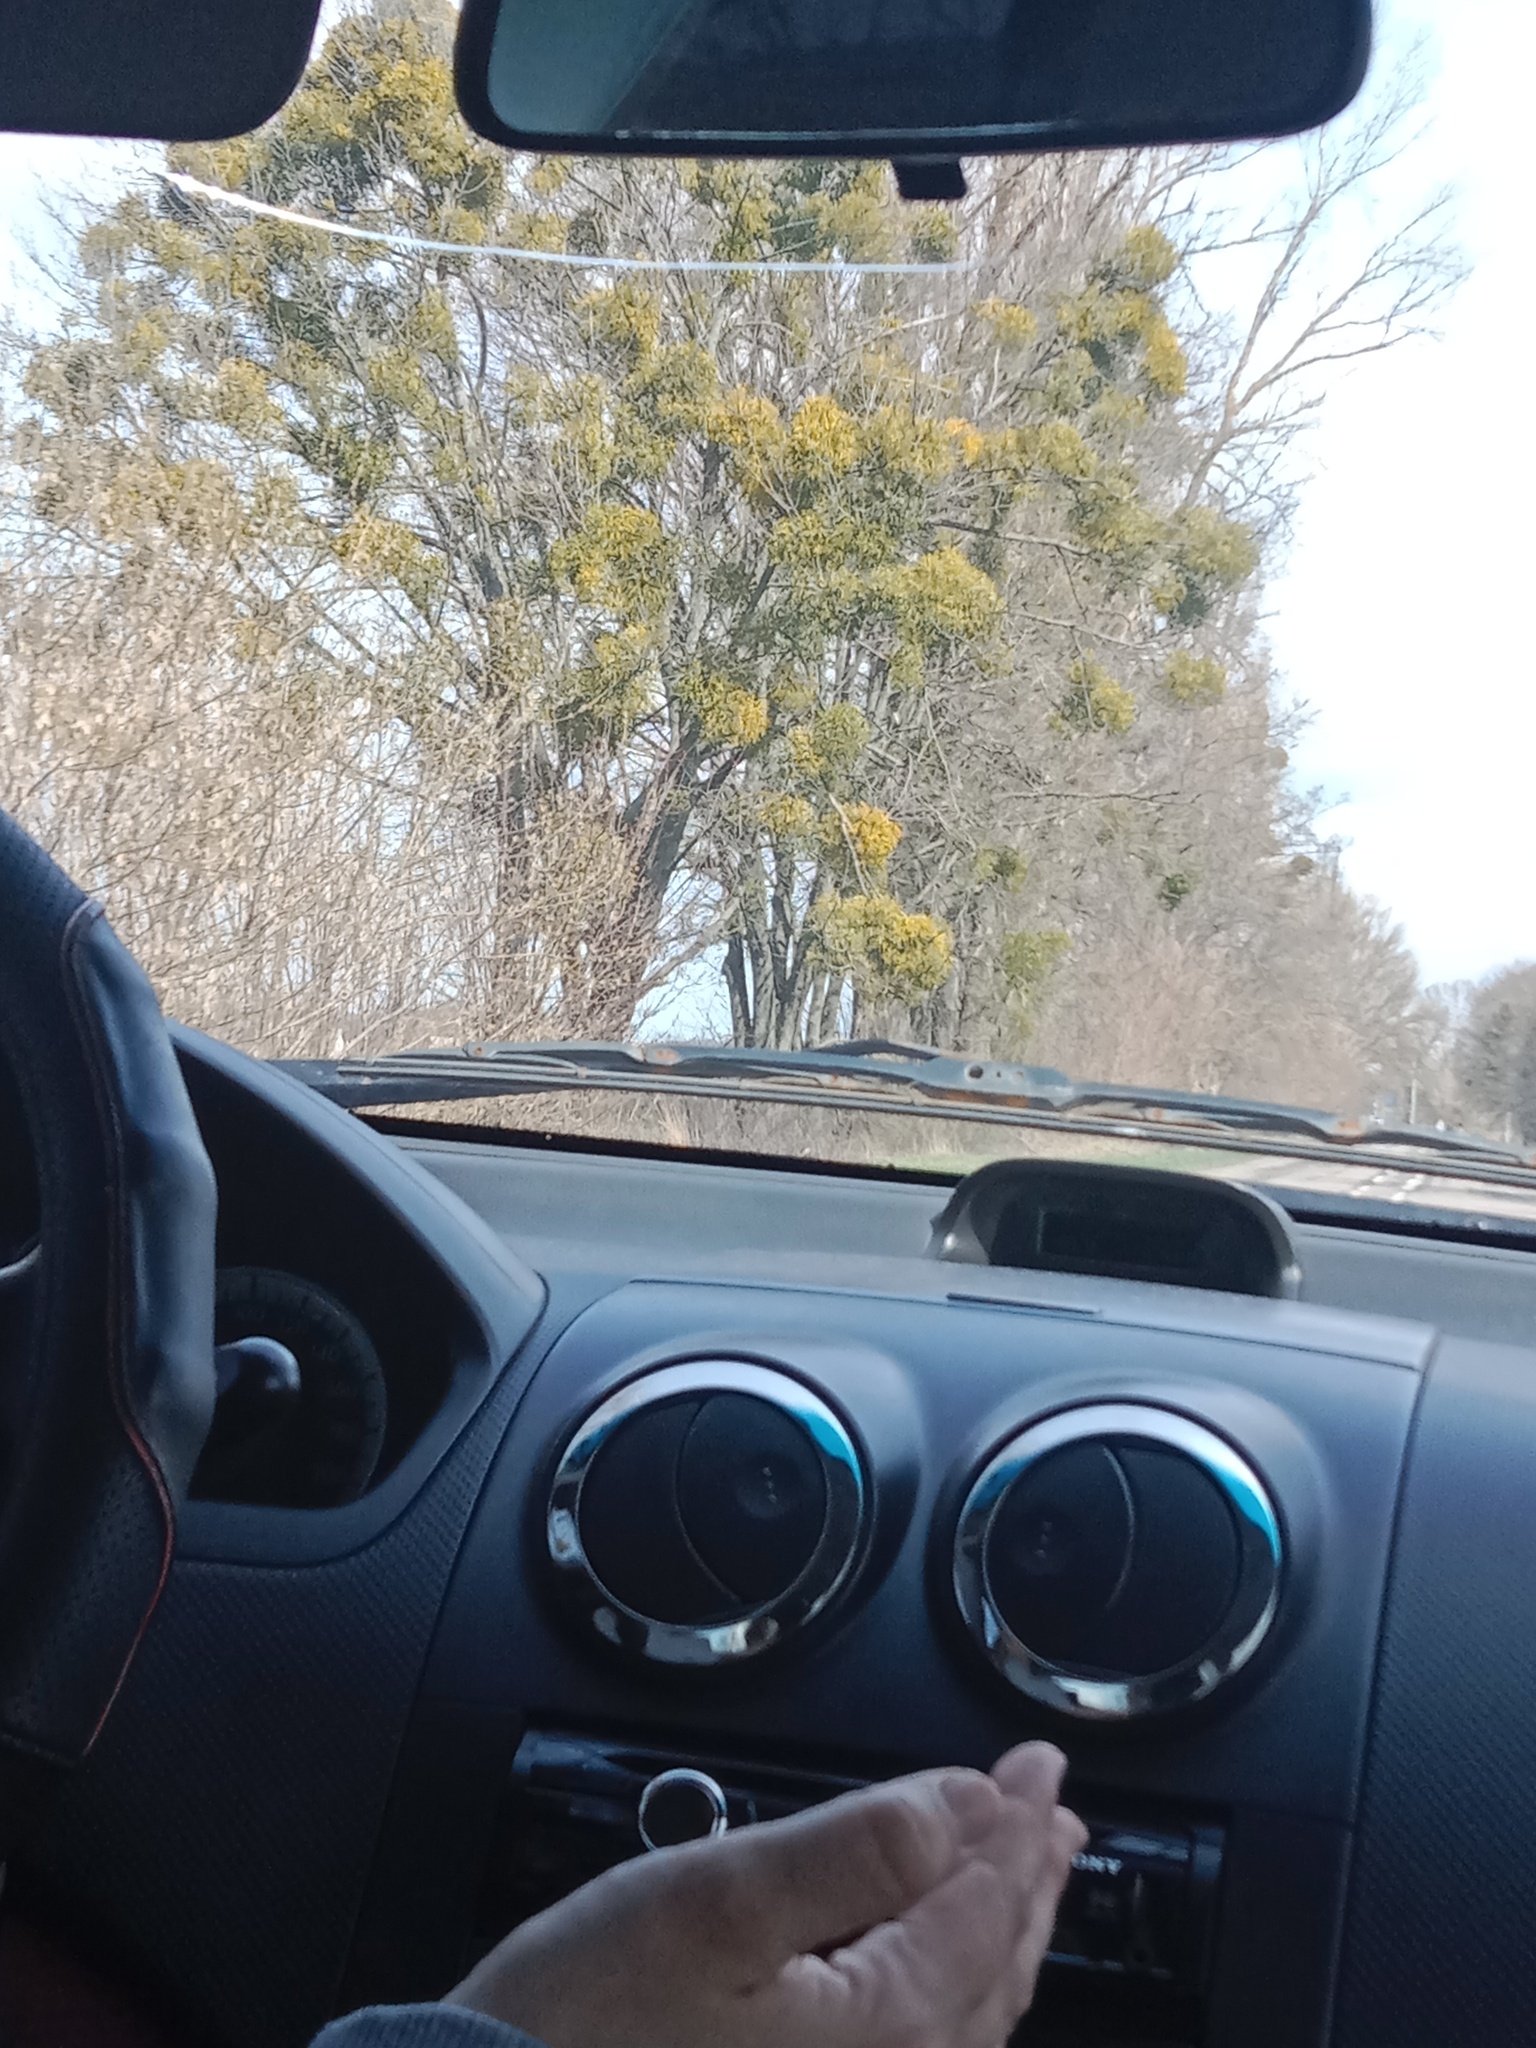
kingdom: Plantae
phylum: Tracheophyta
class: Magnoliopsida
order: Santalales
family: Viscaceae
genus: Viscum
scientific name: Viscum album
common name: Mistletoe
